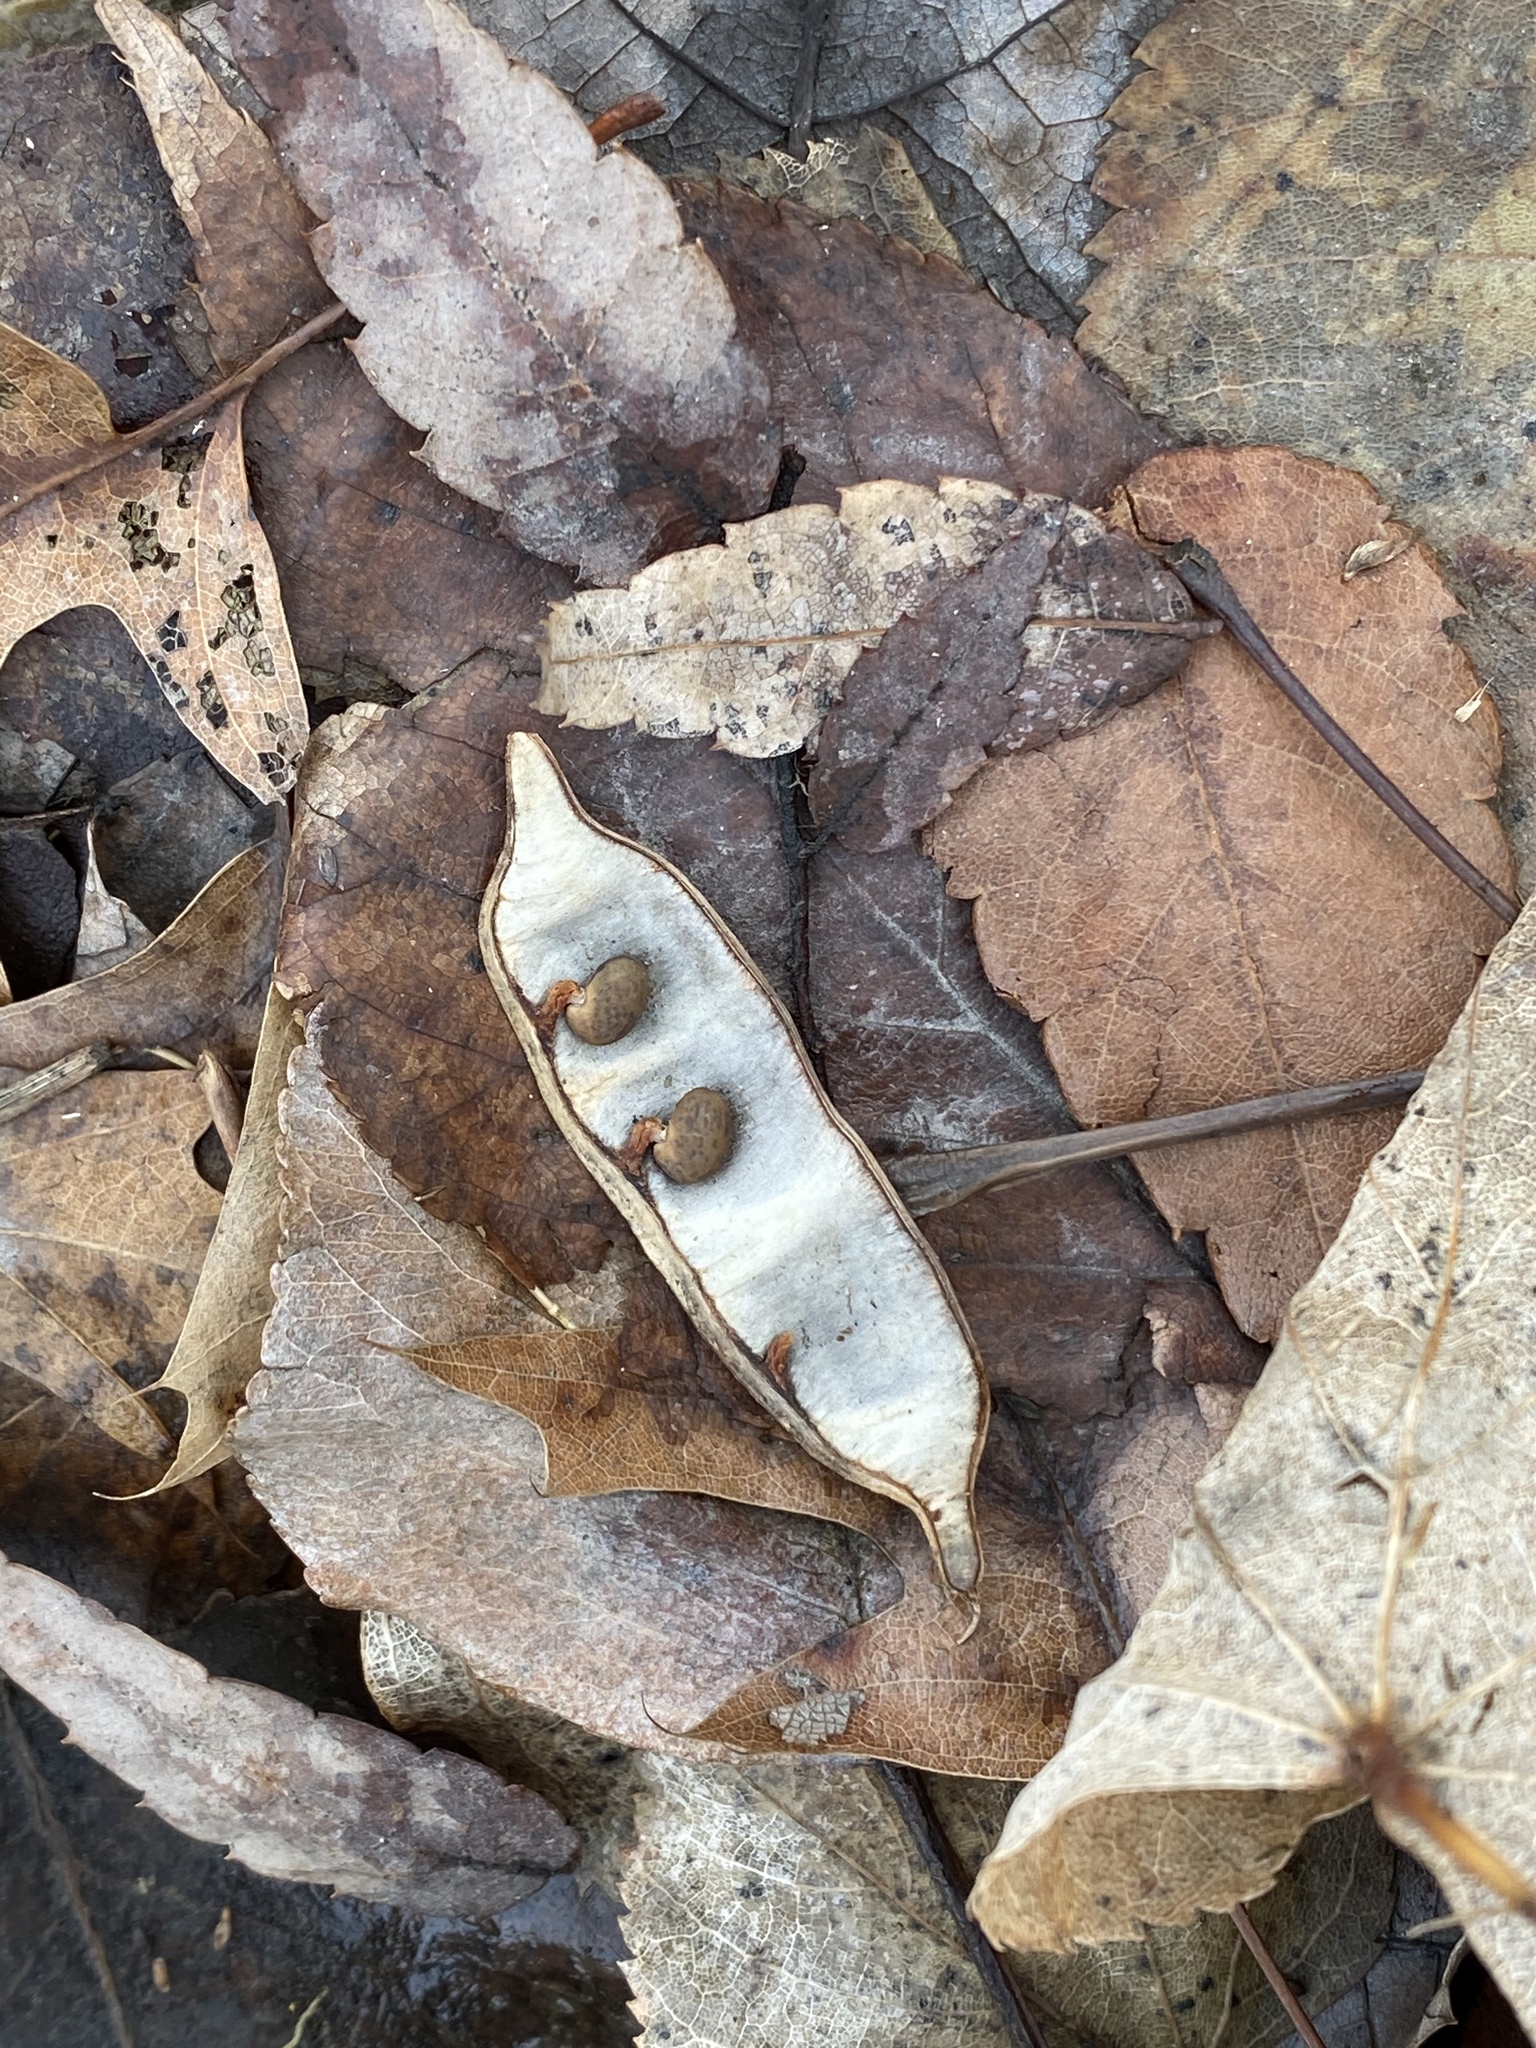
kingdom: Plantae
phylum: Tracheophyta
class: Magnoliopsida
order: Fabales
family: Fabaceae
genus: Robinia
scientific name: Robinia pseudoacacia
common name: Black locust
